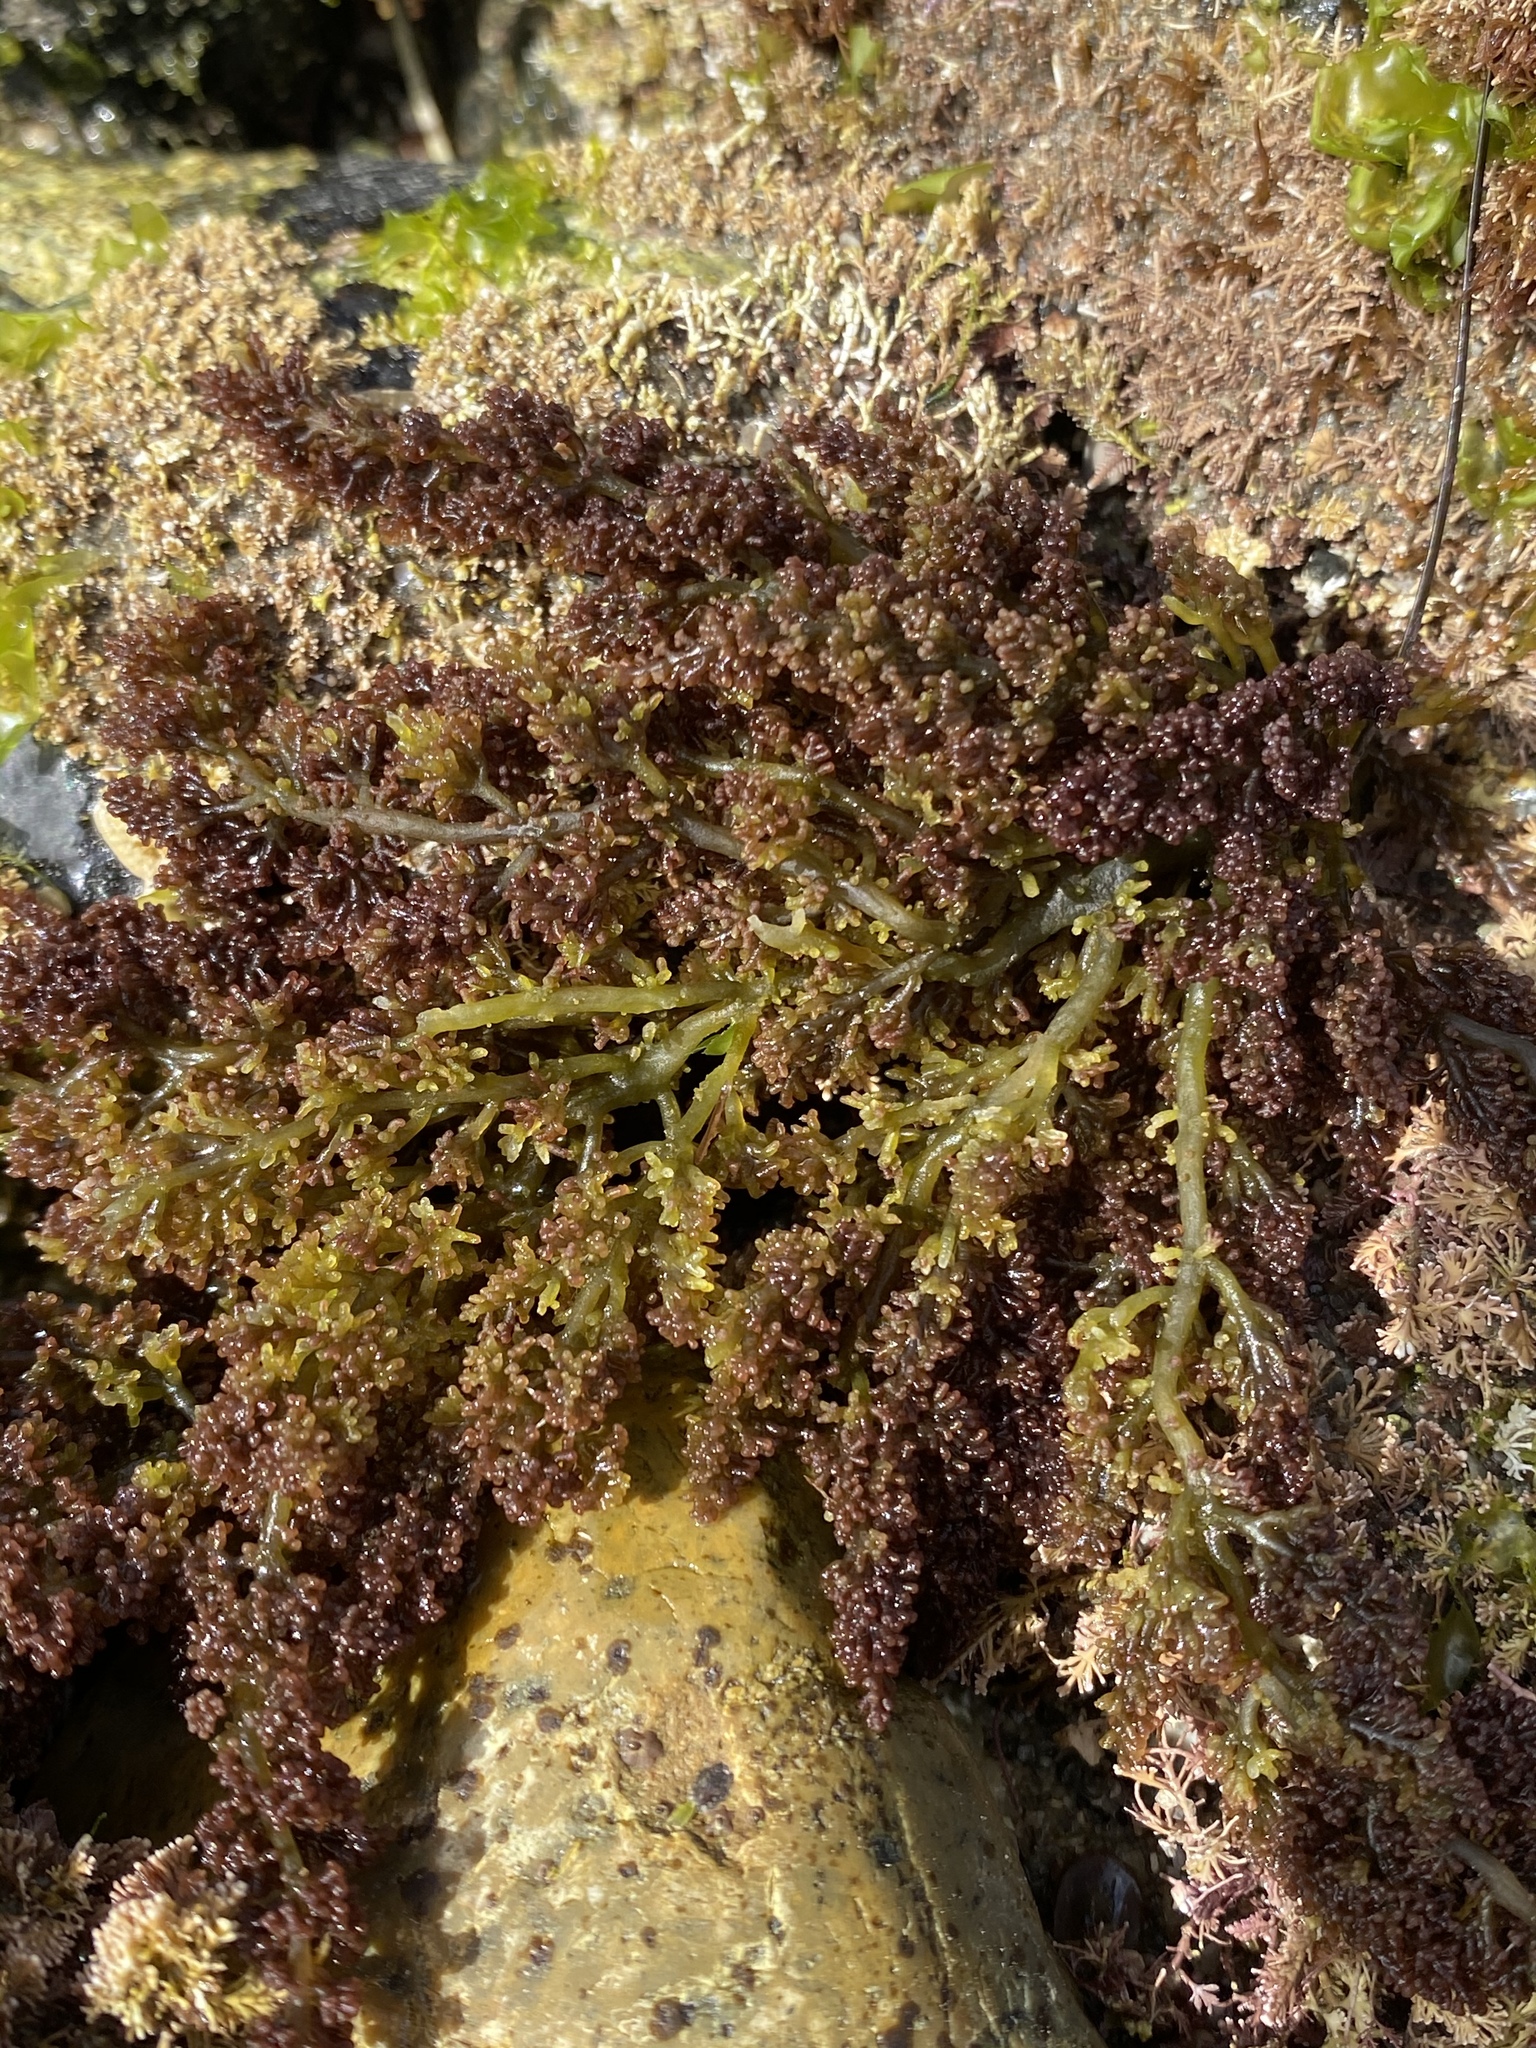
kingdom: Chromista
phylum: Ochrophyta
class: Phaeophyceae
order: Fucales
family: Sargassaceae
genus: Sargassum
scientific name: Sargassum muticum
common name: Japweed
